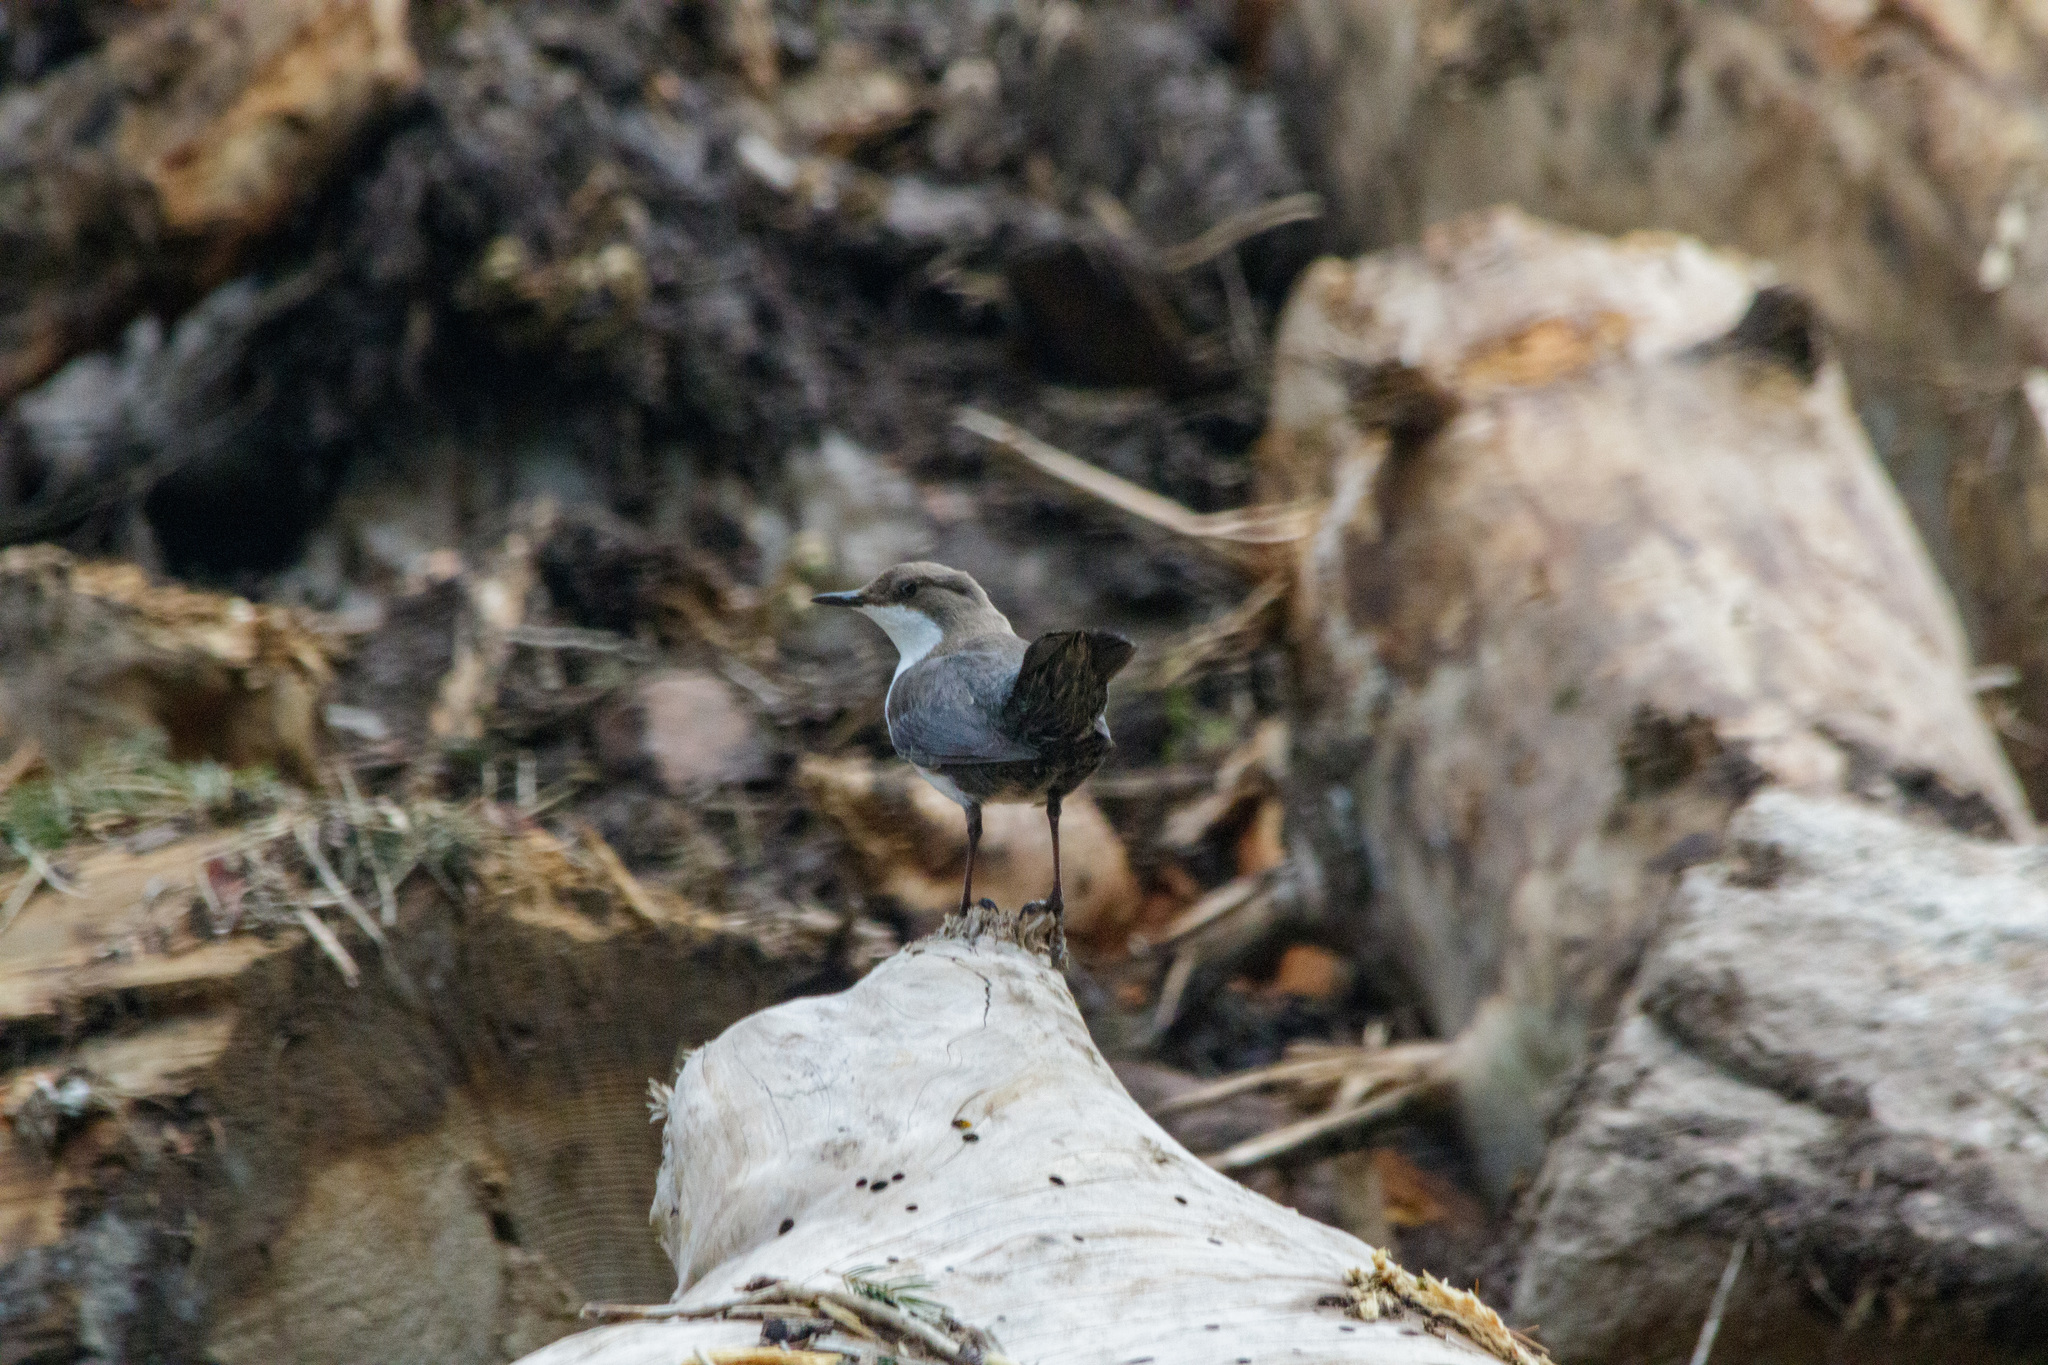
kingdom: Animalia
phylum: Chordata
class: Aves
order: Passeriformes
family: Cinclidae
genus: Cinclus
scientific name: Cinclus cinclus
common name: White-throated dipper
